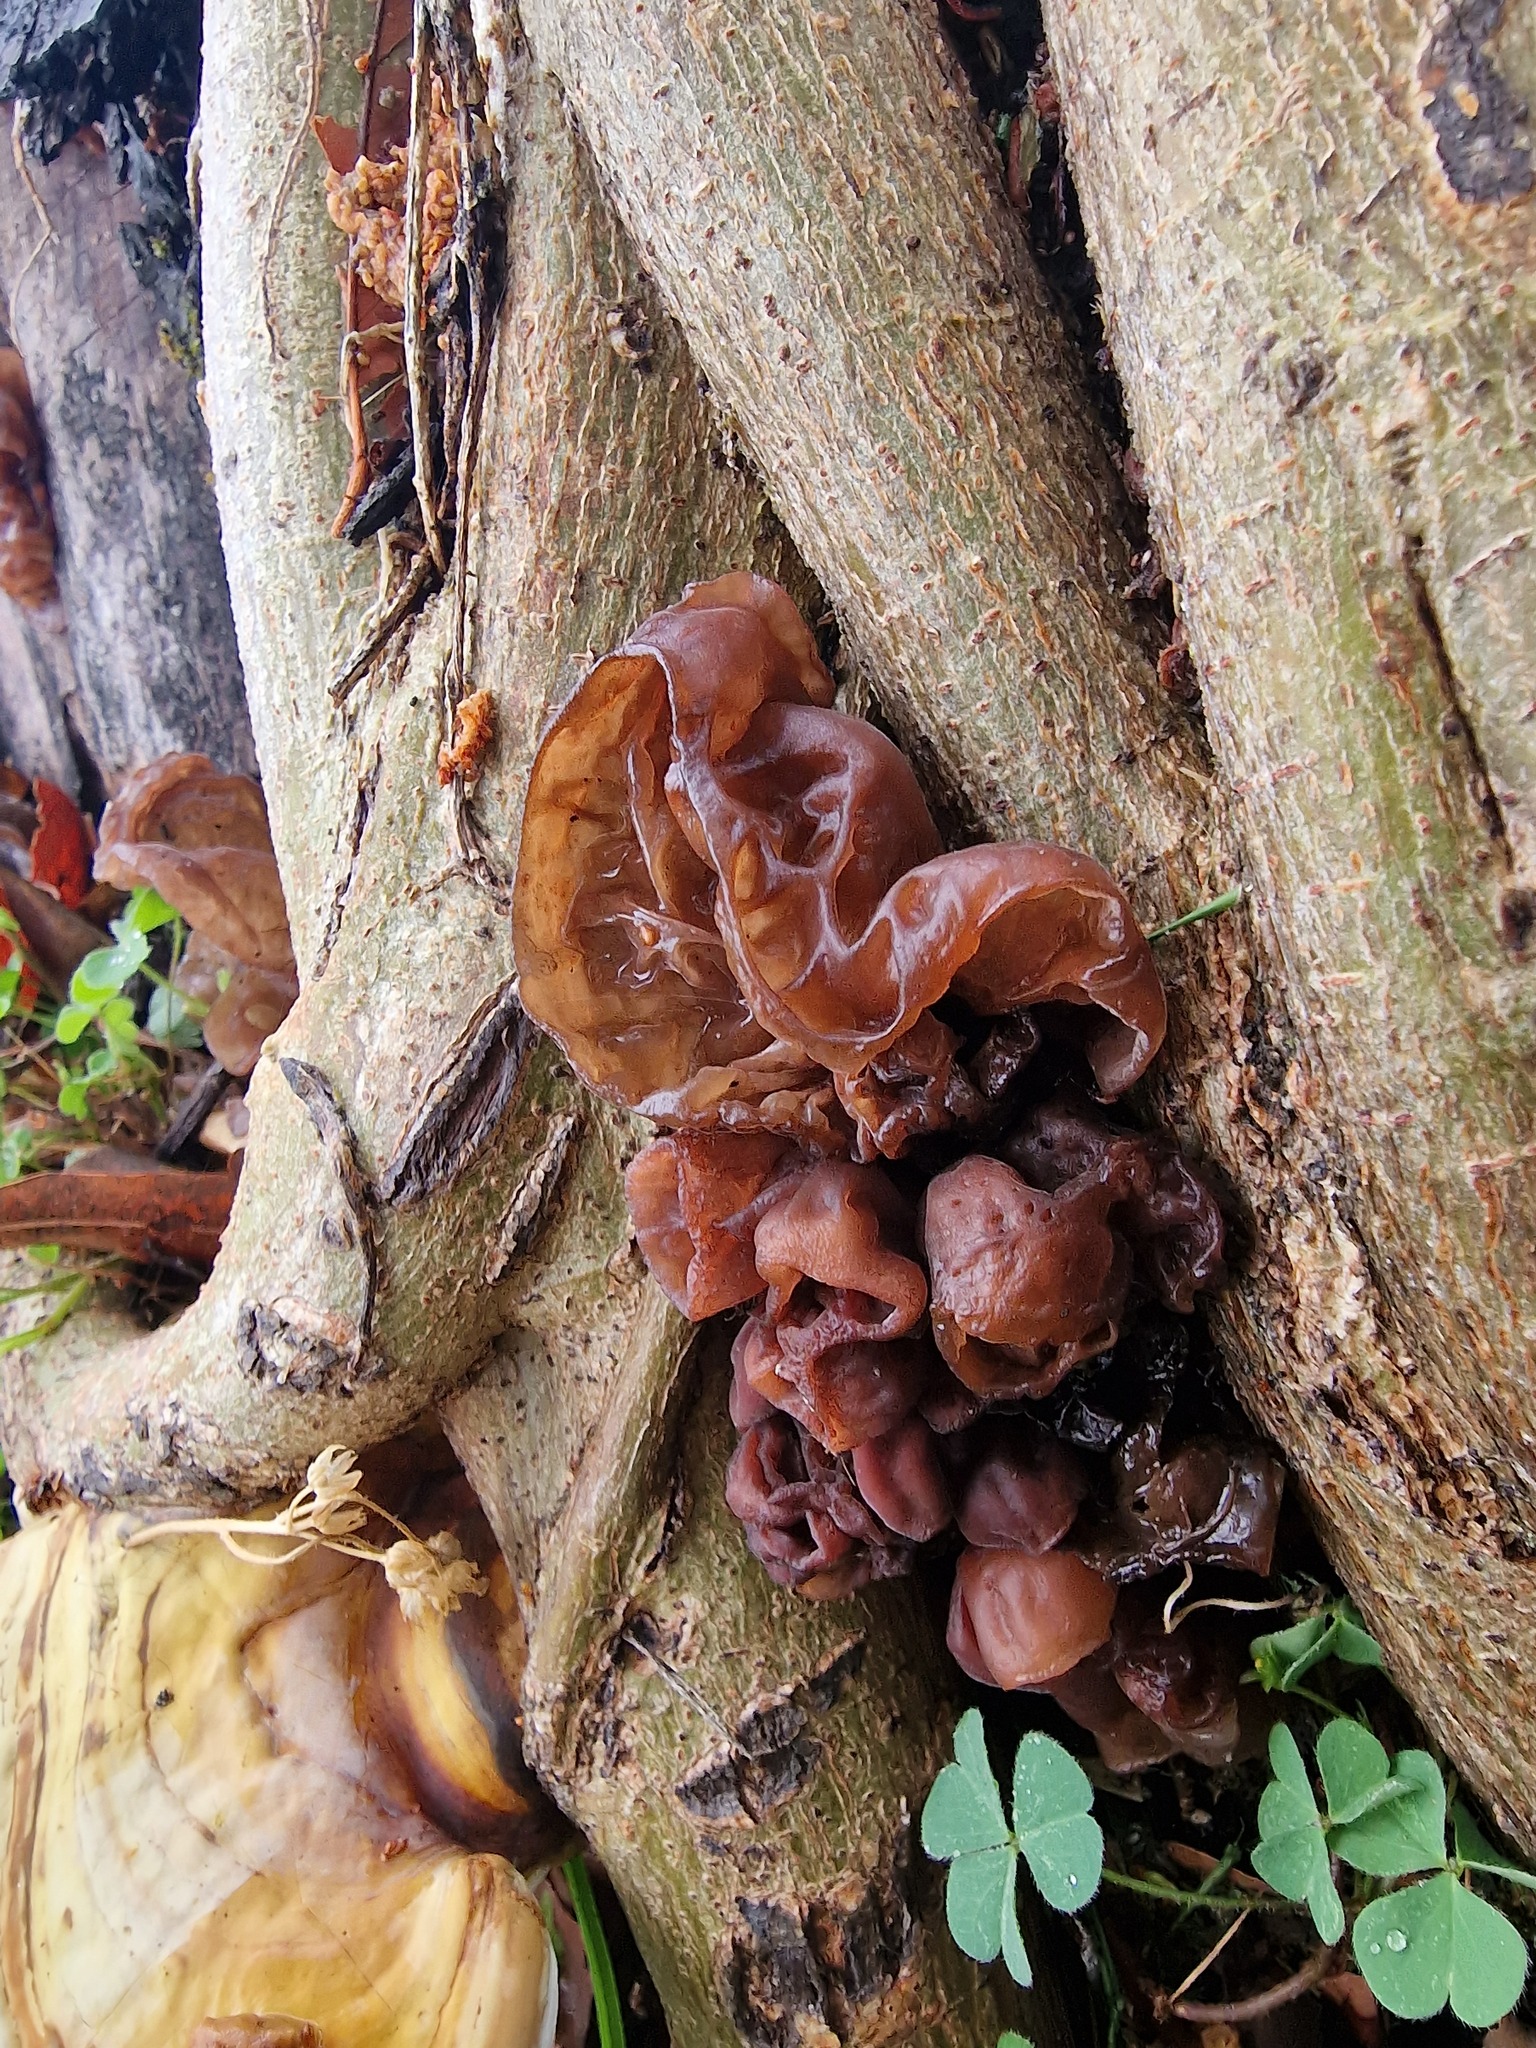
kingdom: Fungi
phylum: Basidiomycota
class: Agaricomycetes
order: Auriculariales
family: Auriculariaceae
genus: Auricularia
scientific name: Auricularia auricula-judae
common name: Jelly ear
